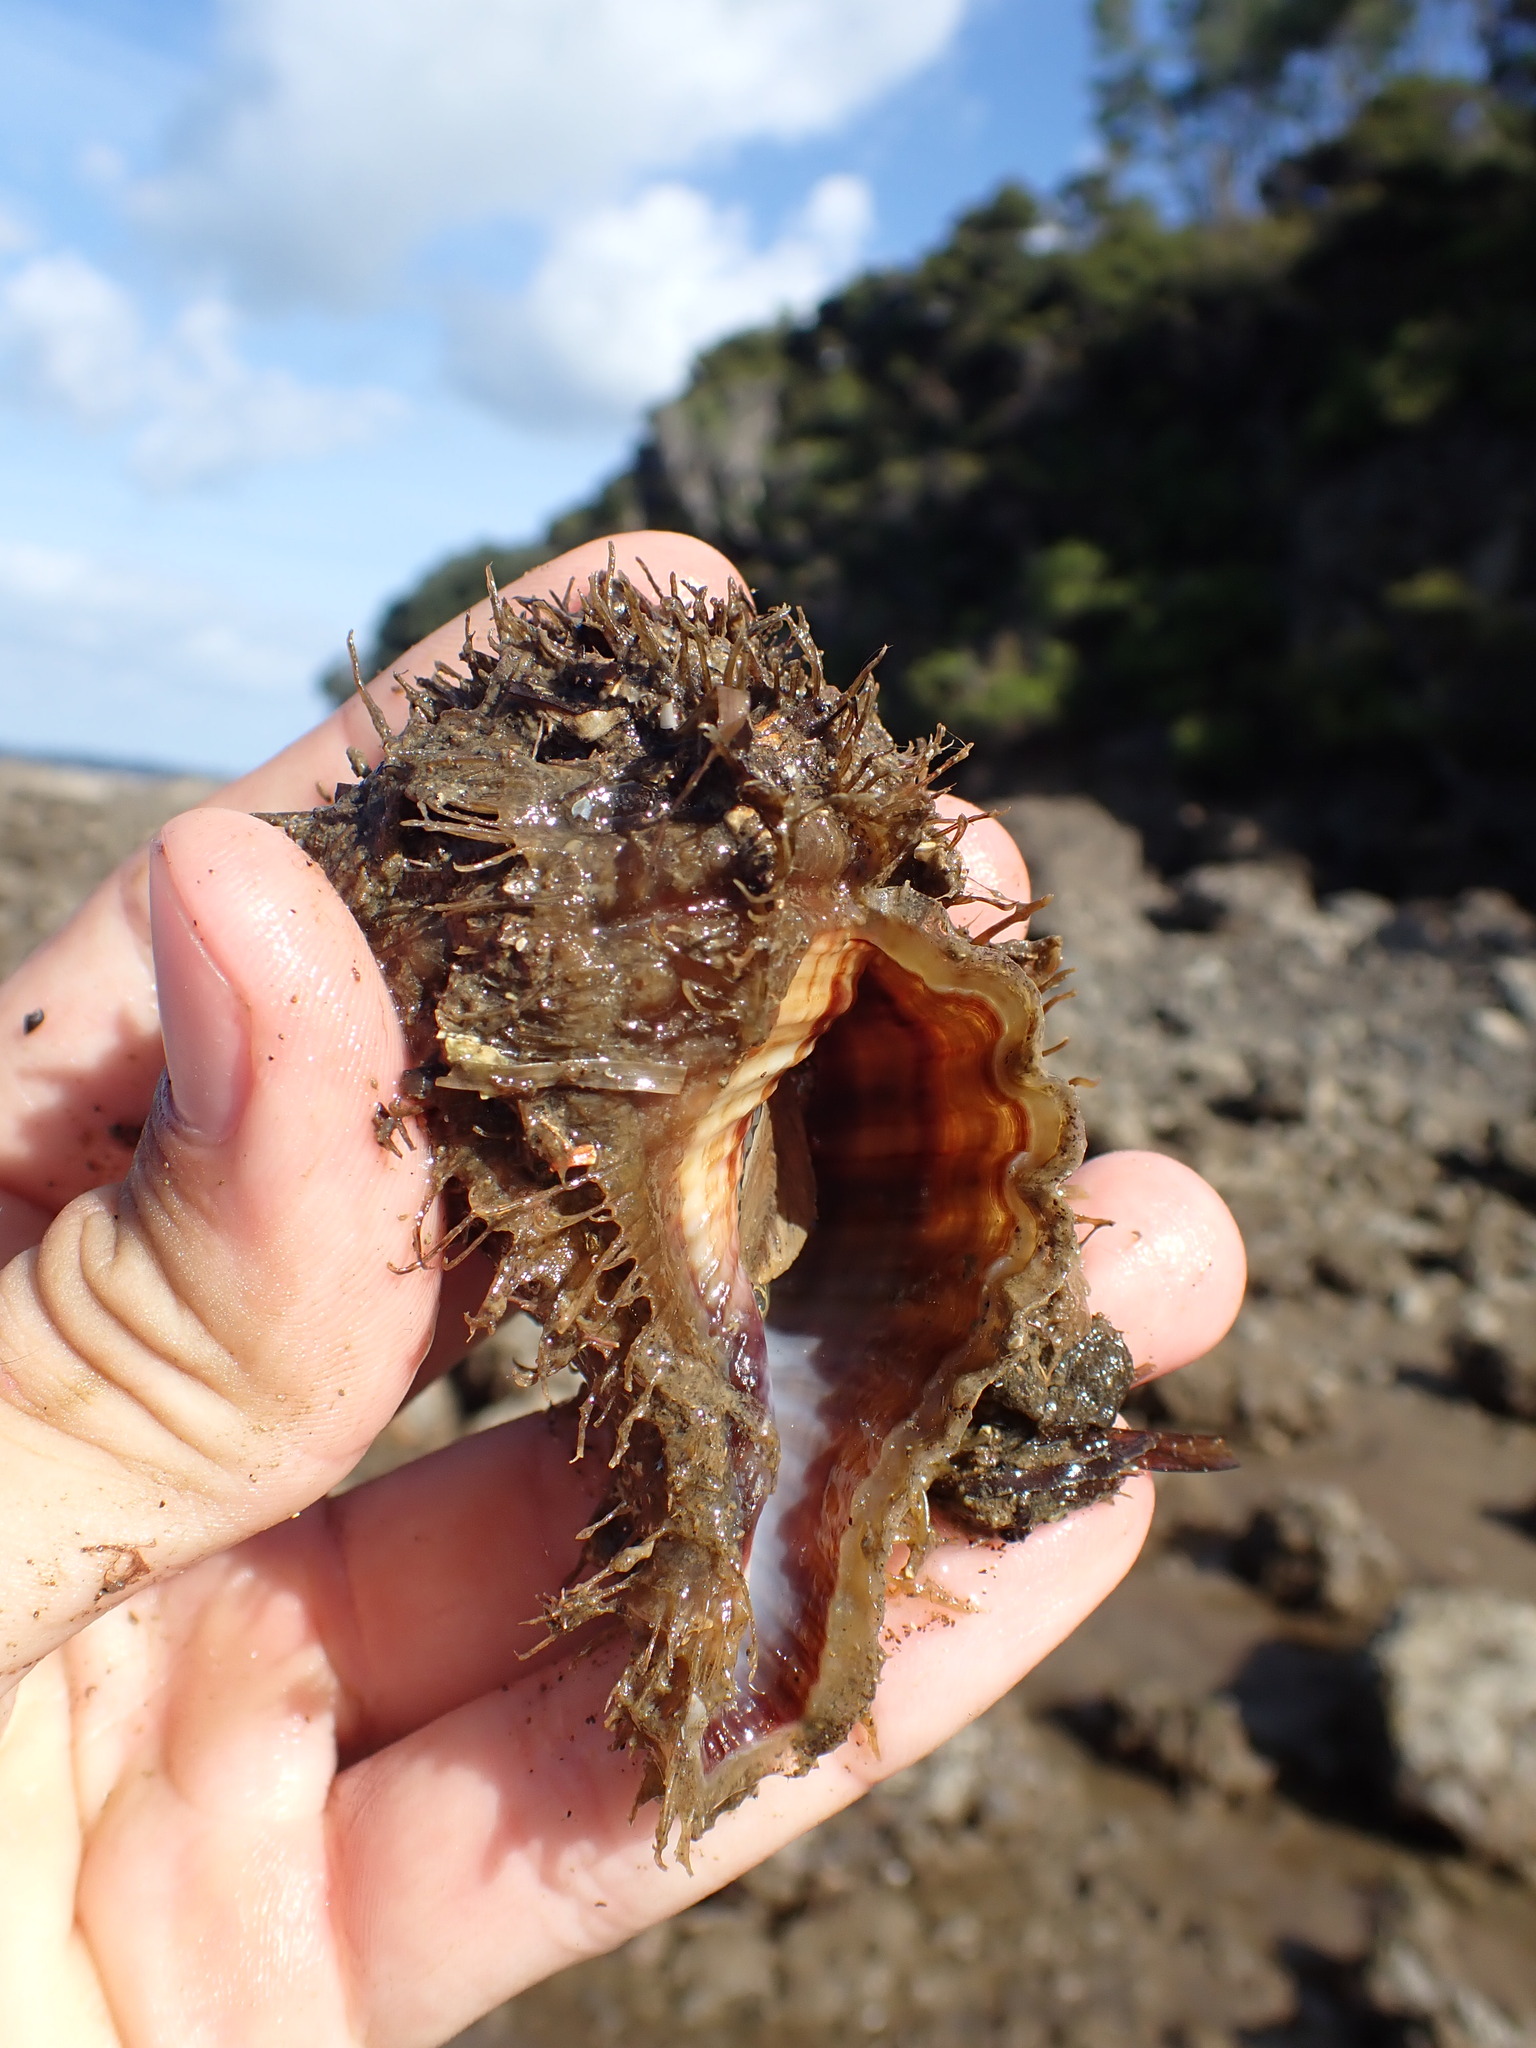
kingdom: Animalia
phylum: Mollusca
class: Gastropoda
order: Littorinimorpha
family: Cymatiidae
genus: Monoplex
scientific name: Monoplex parthenopeus
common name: Giant triton
